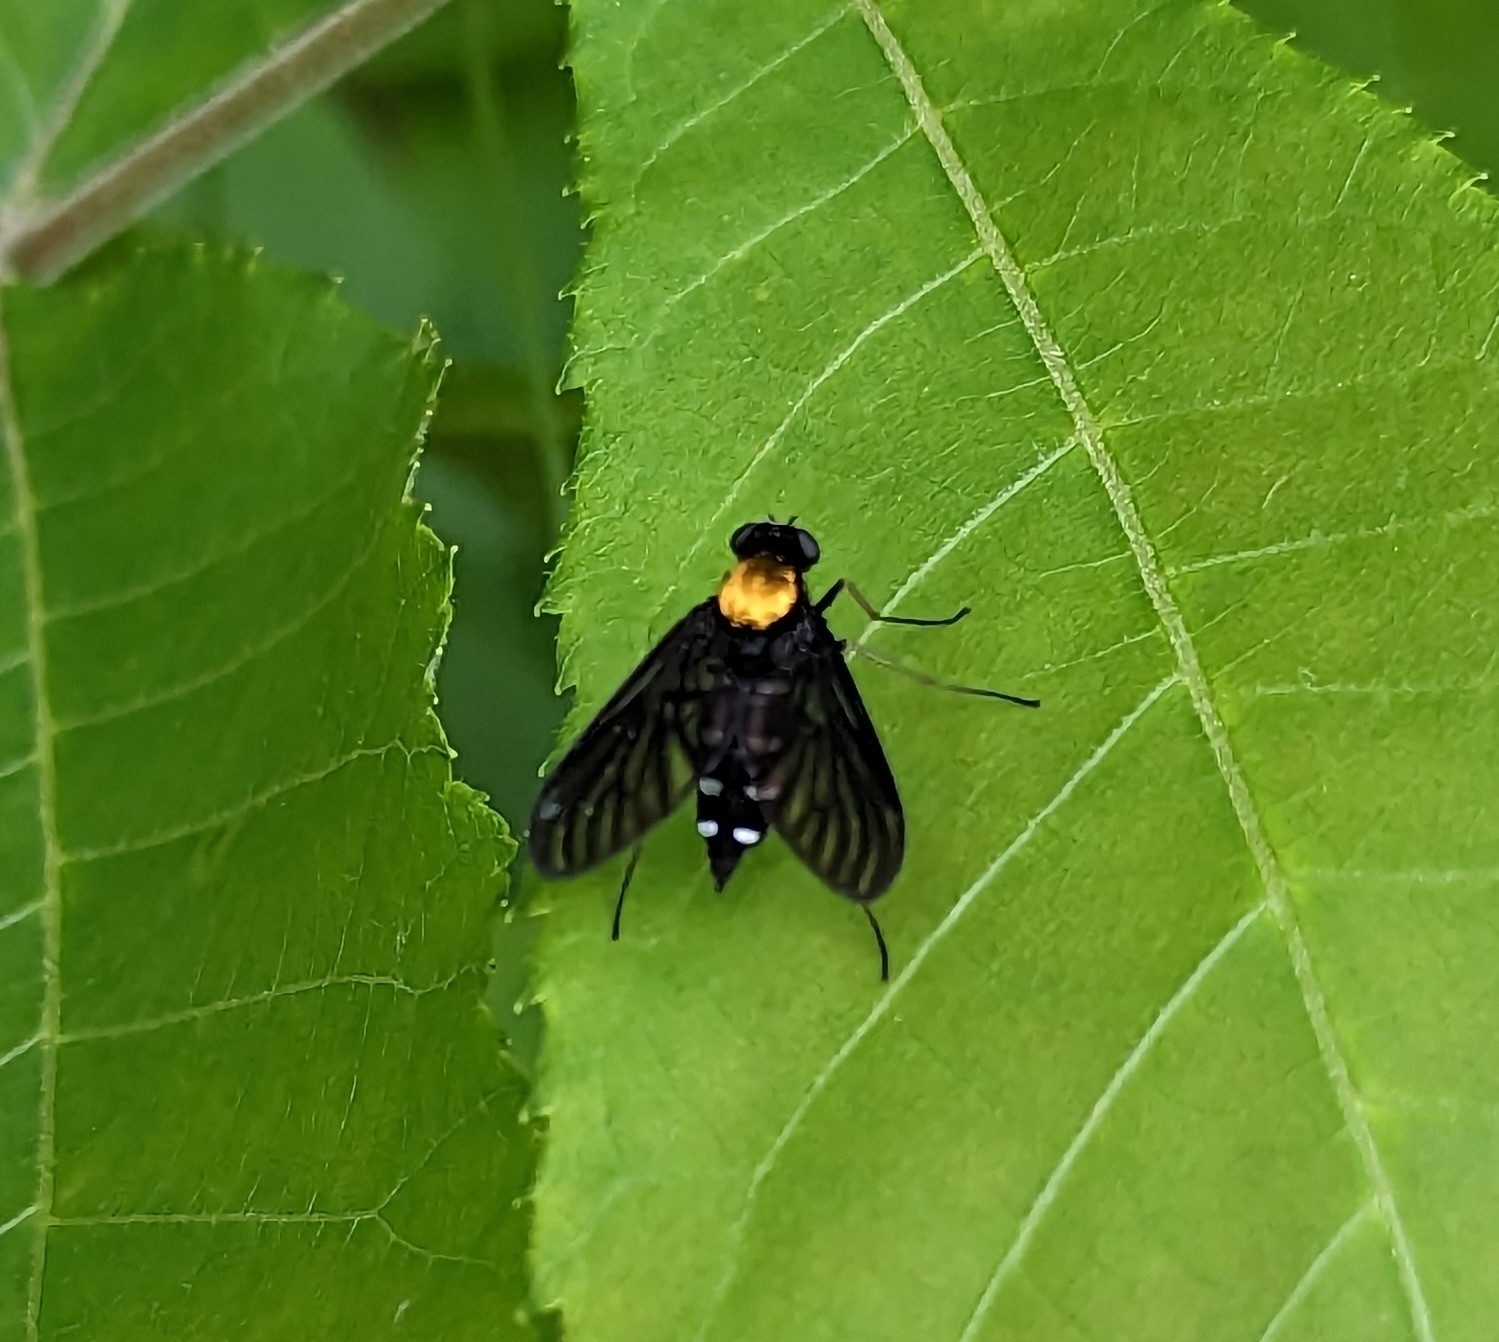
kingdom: Animalia
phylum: Arthropoda
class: Insecta
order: Diptera
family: Rhagionidae
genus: Chrysopilus
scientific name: Chrysopilus thoracicus
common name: Golden-backed snipe fly
